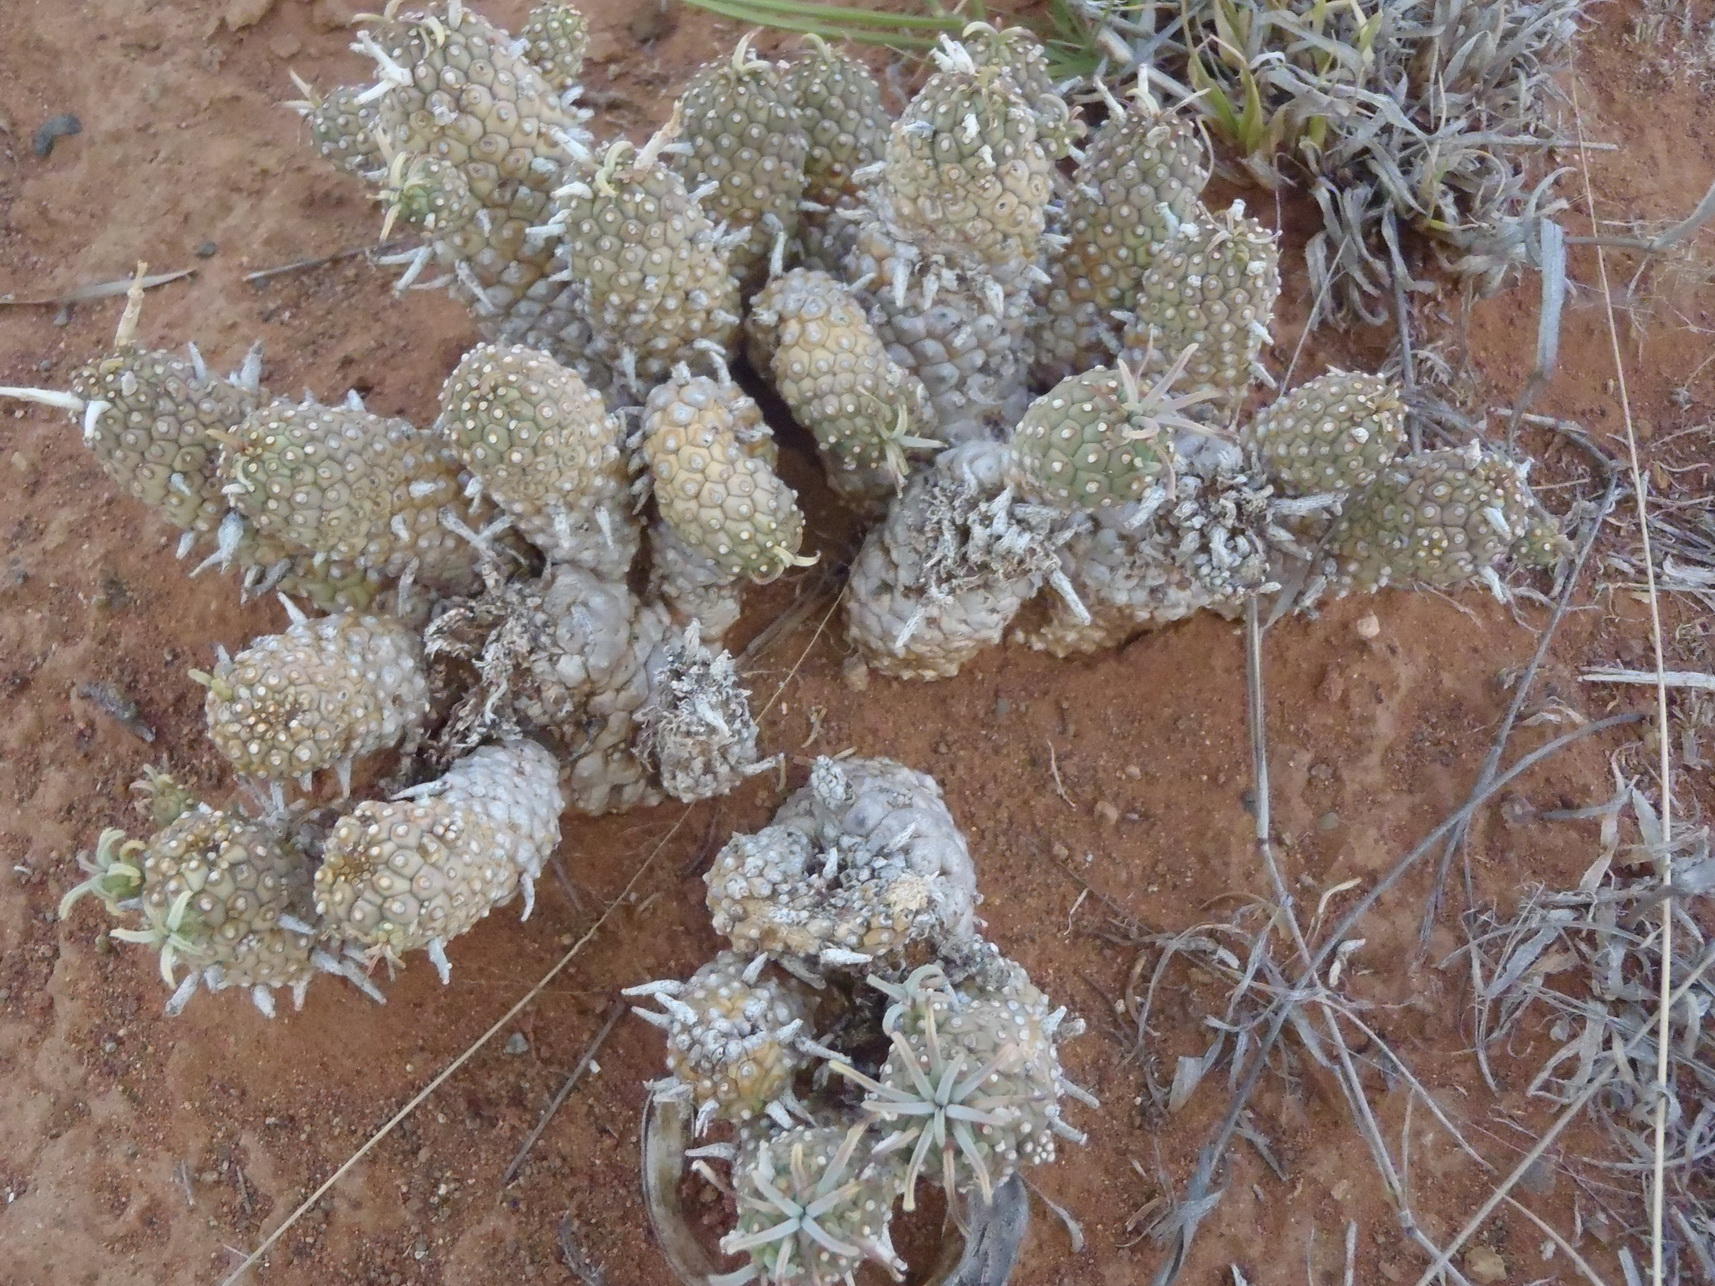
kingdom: Plantae
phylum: Tracheophyta
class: Magnoliopsida
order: Malpighiales
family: Euphorbiaceae
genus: Euphorbia
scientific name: Euphorbia braunsii
